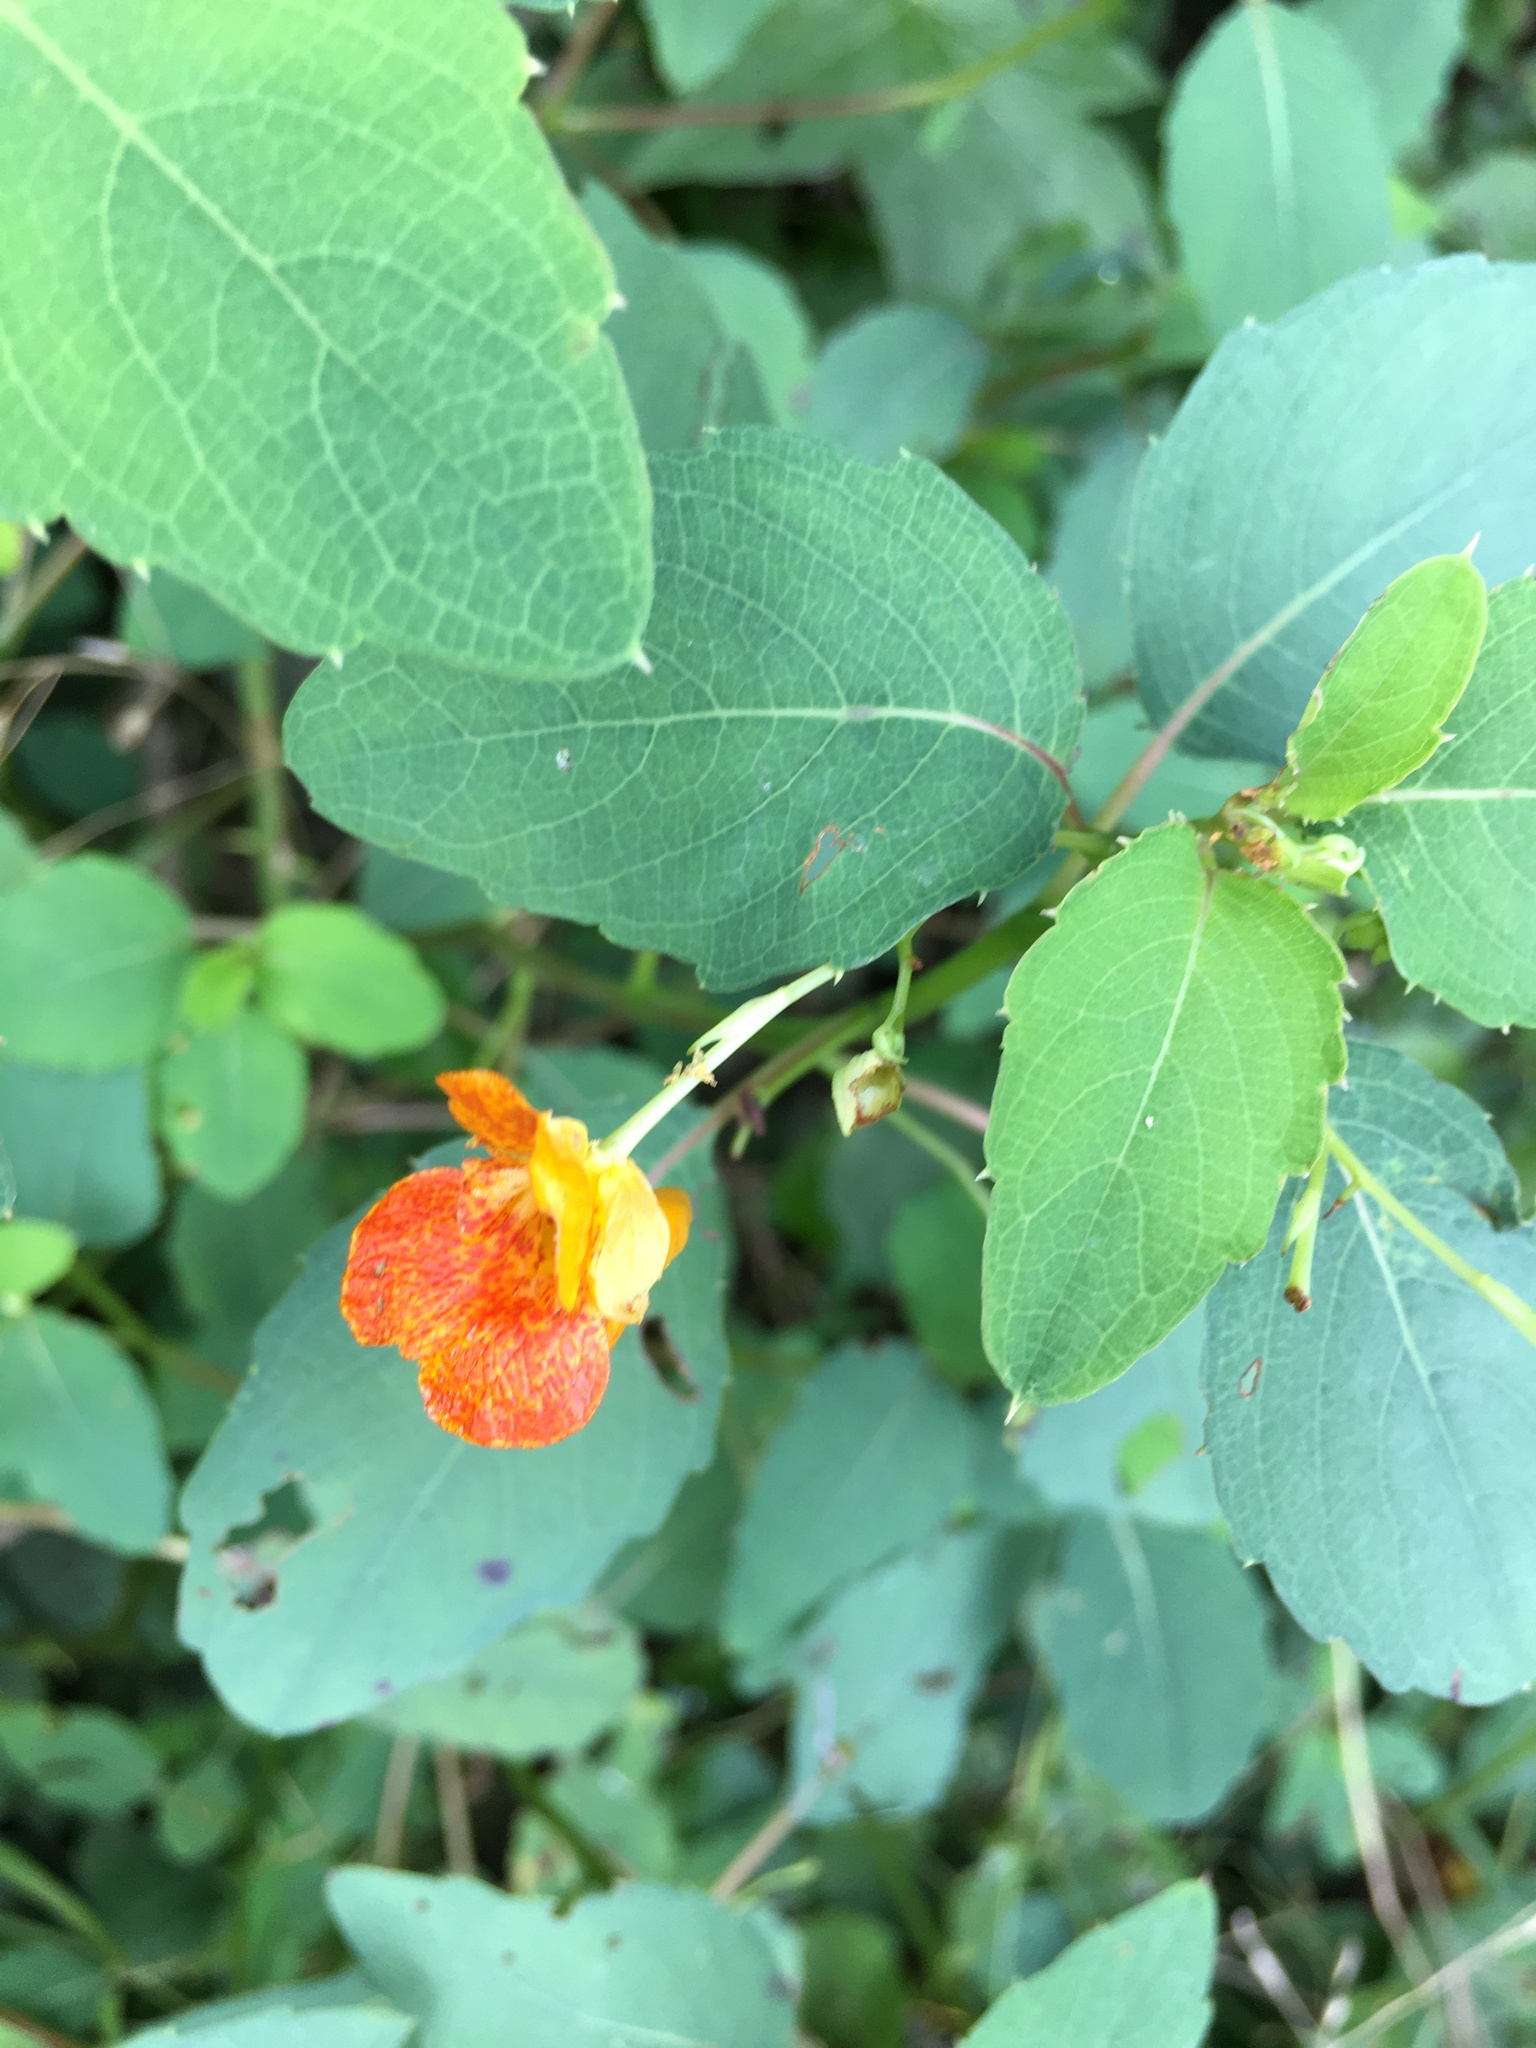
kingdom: Plantae
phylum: Tracheophyta
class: Magnoliopsida
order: Ericales
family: Balsaminaceae
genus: Impatiens
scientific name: Impatiens capensis
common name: Orange balsam
